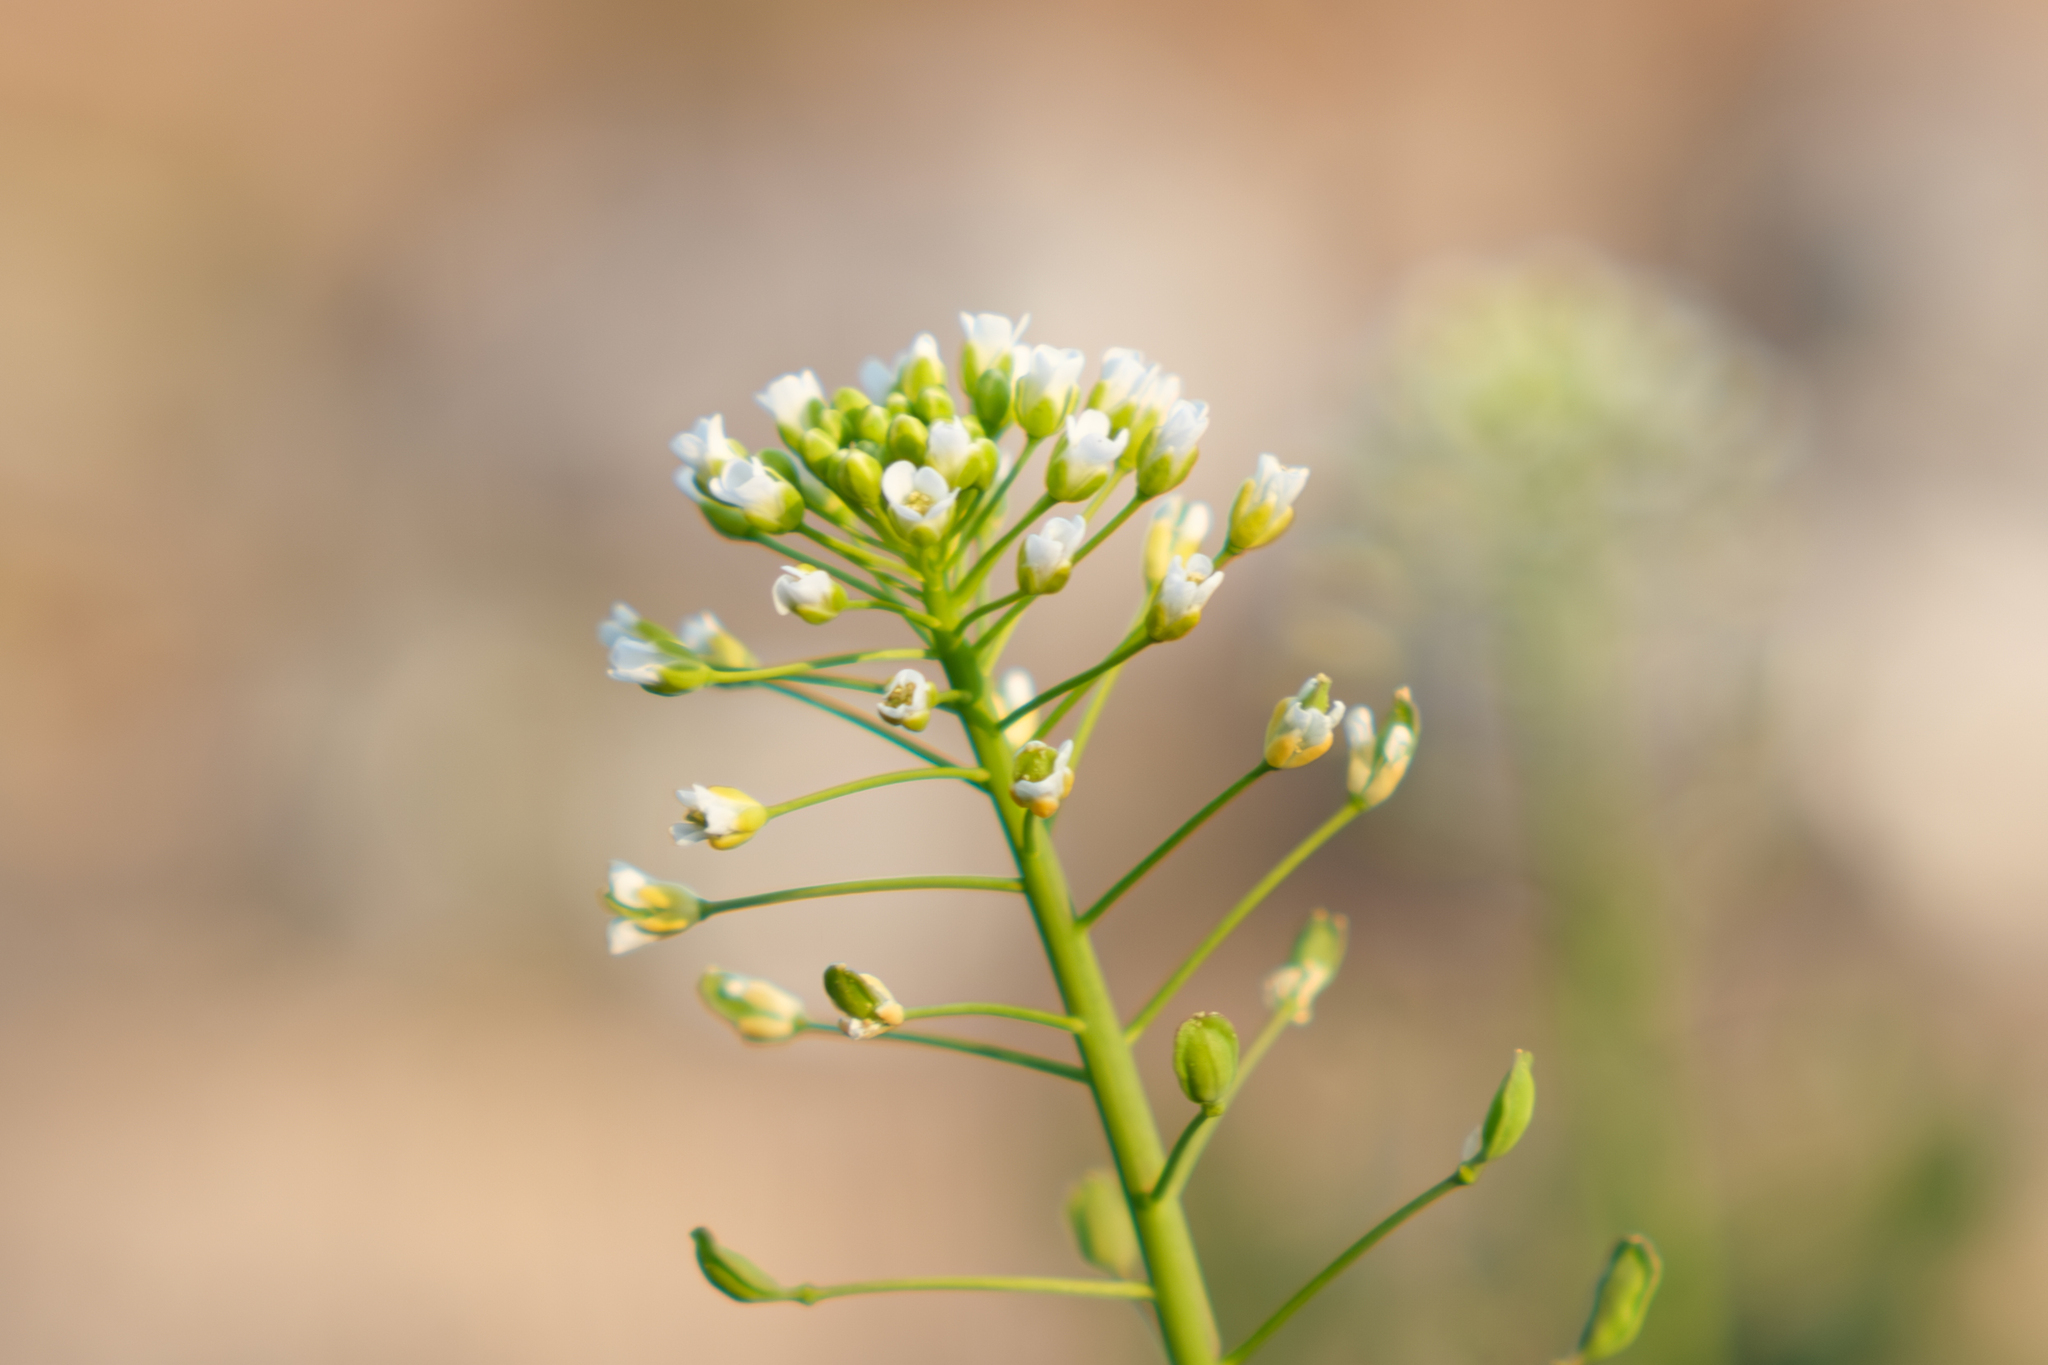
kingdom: Plantae
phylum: Tracheophyta
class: Magnoliopsida
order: Brassicales
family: Brassicaceae
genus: Mummenhoffia
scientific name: Mummenhoffia alliacea
